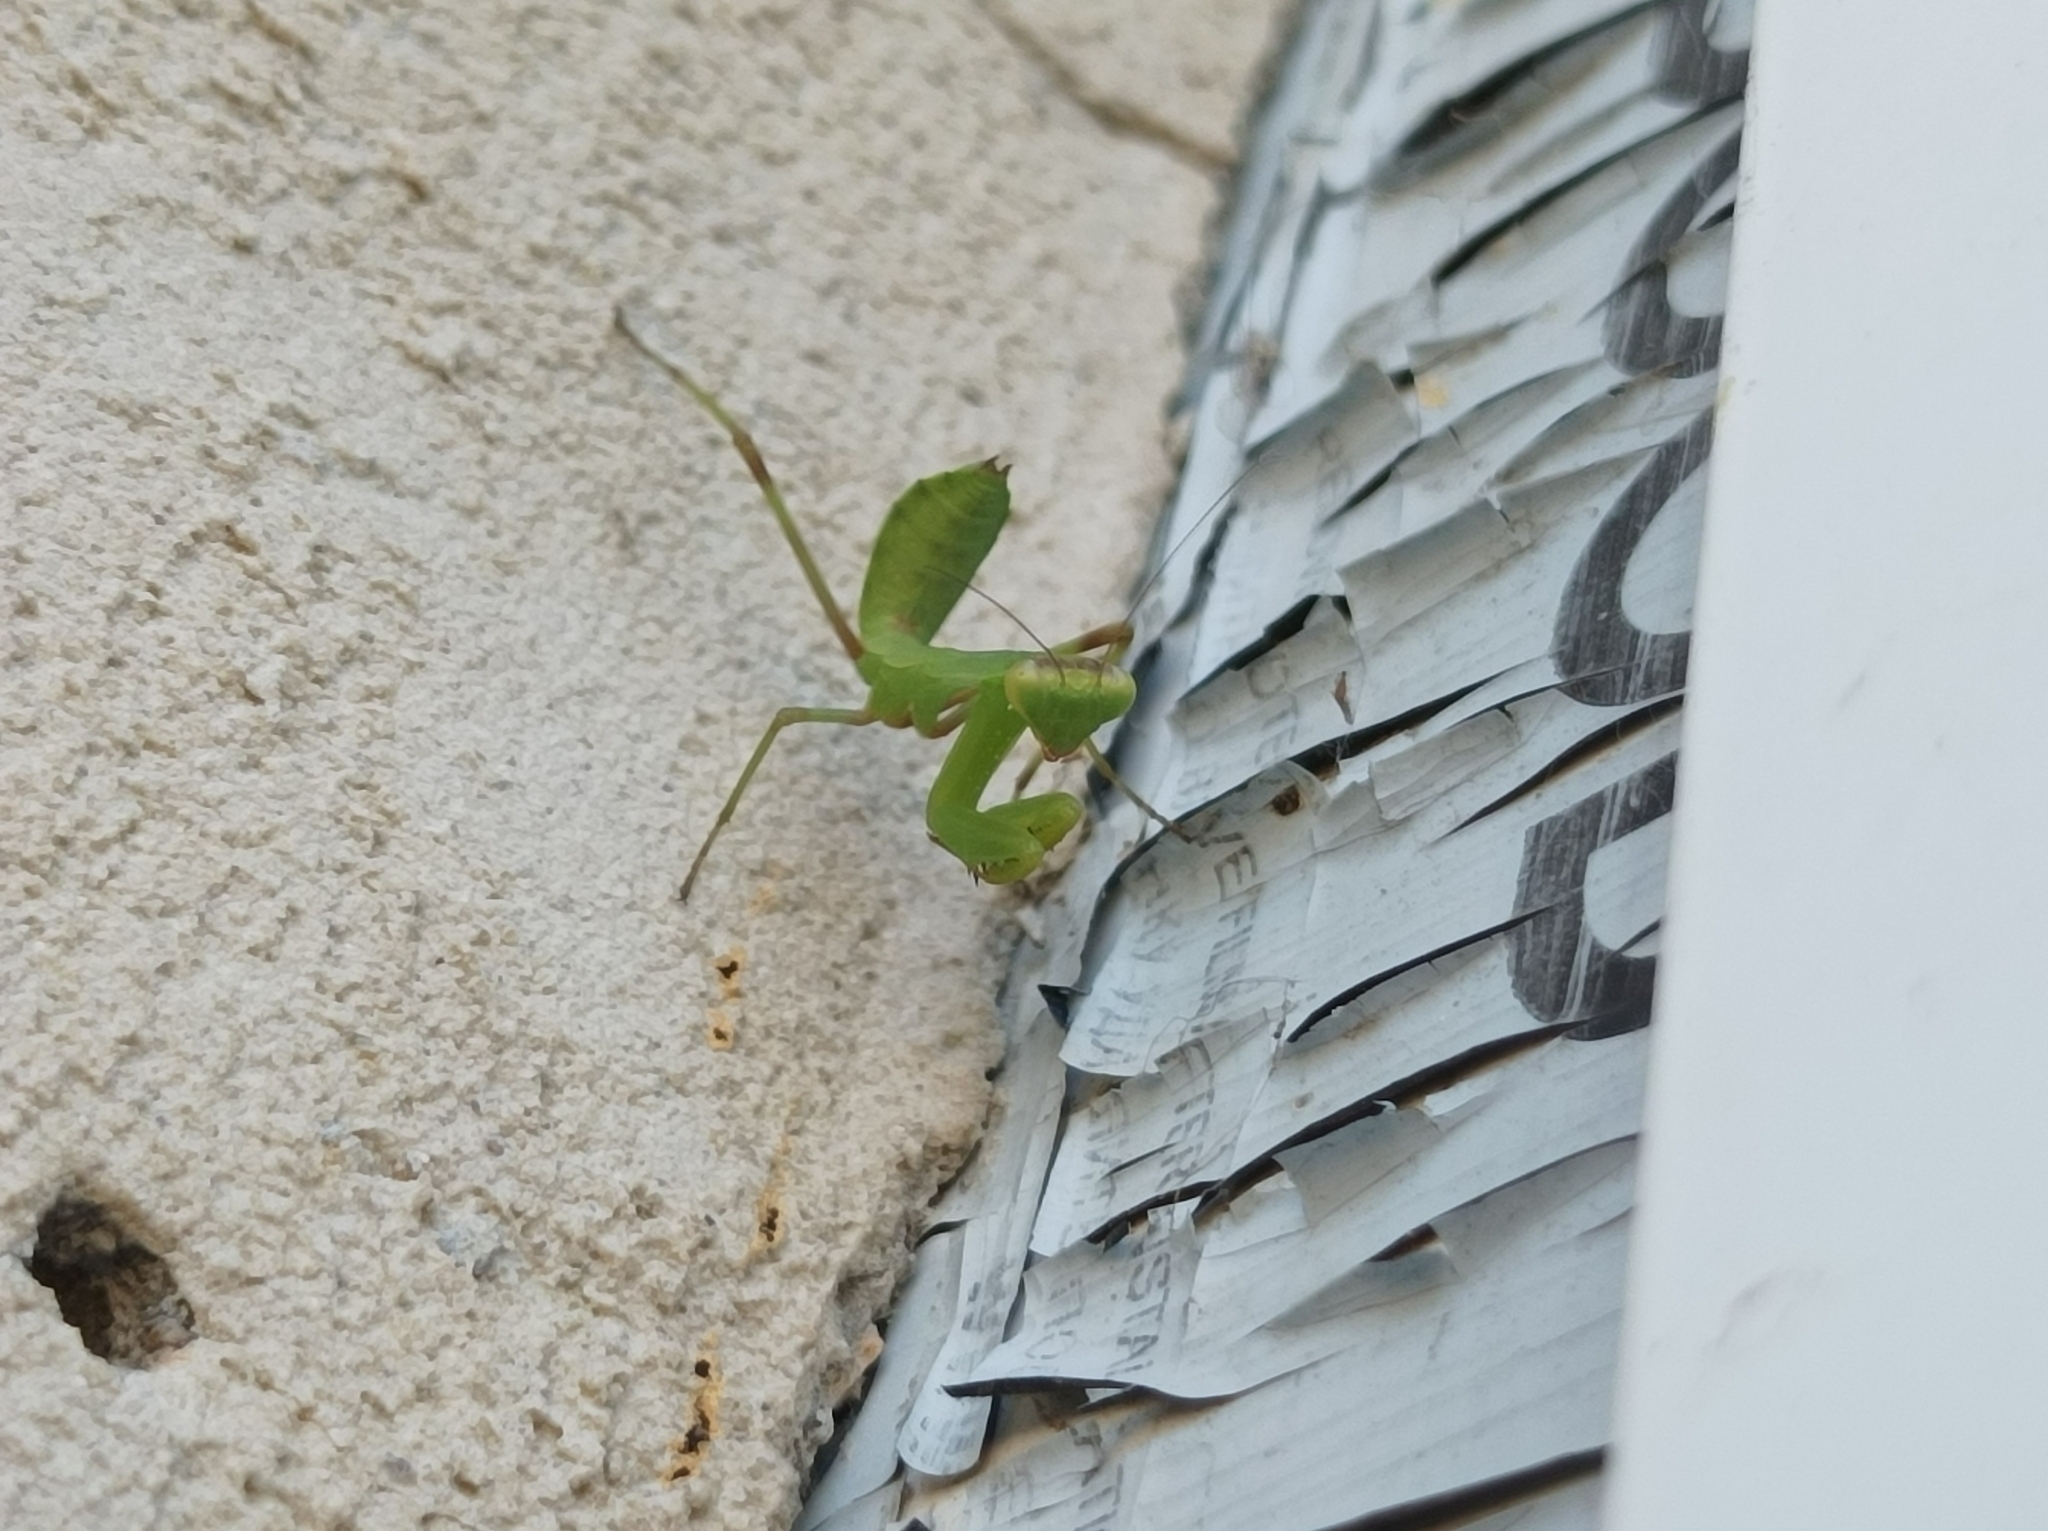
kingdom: Animalia
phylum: Arthropoda
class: Insecta
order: Mantodea
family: Mantidae
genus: Hierodula
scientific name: Hierodula transcaucasica
